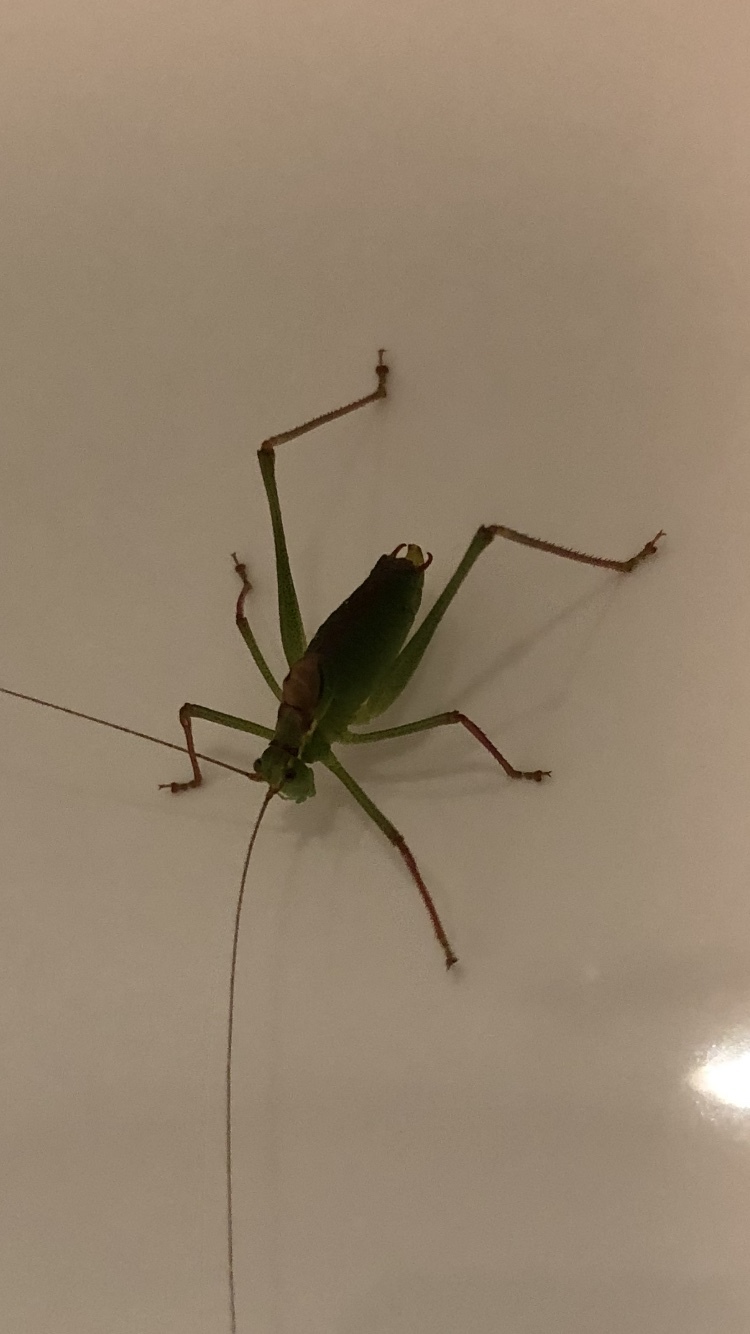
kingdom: Animalia
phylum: Arthropoda
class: Insecta
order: Orthoptera
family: Tettigoniidae
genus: Leptophyes
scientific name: Leptophyes punctatissima
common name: Speckled bush-cricket
